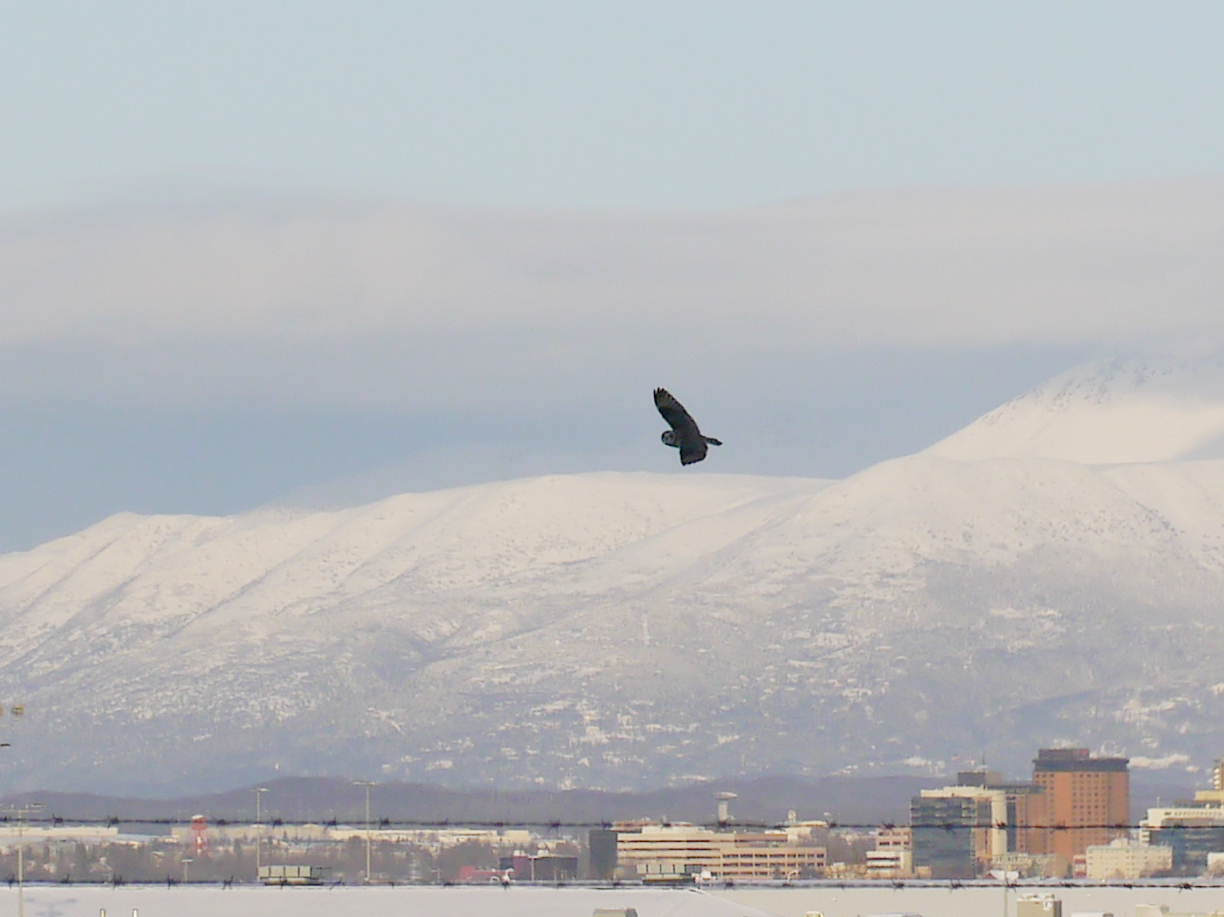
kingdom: Animalia
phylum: Chordata
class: Aves
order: Strigiformes
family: Strigidae
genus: Asio
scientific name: Asio flammeus
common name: Short-eared owl
